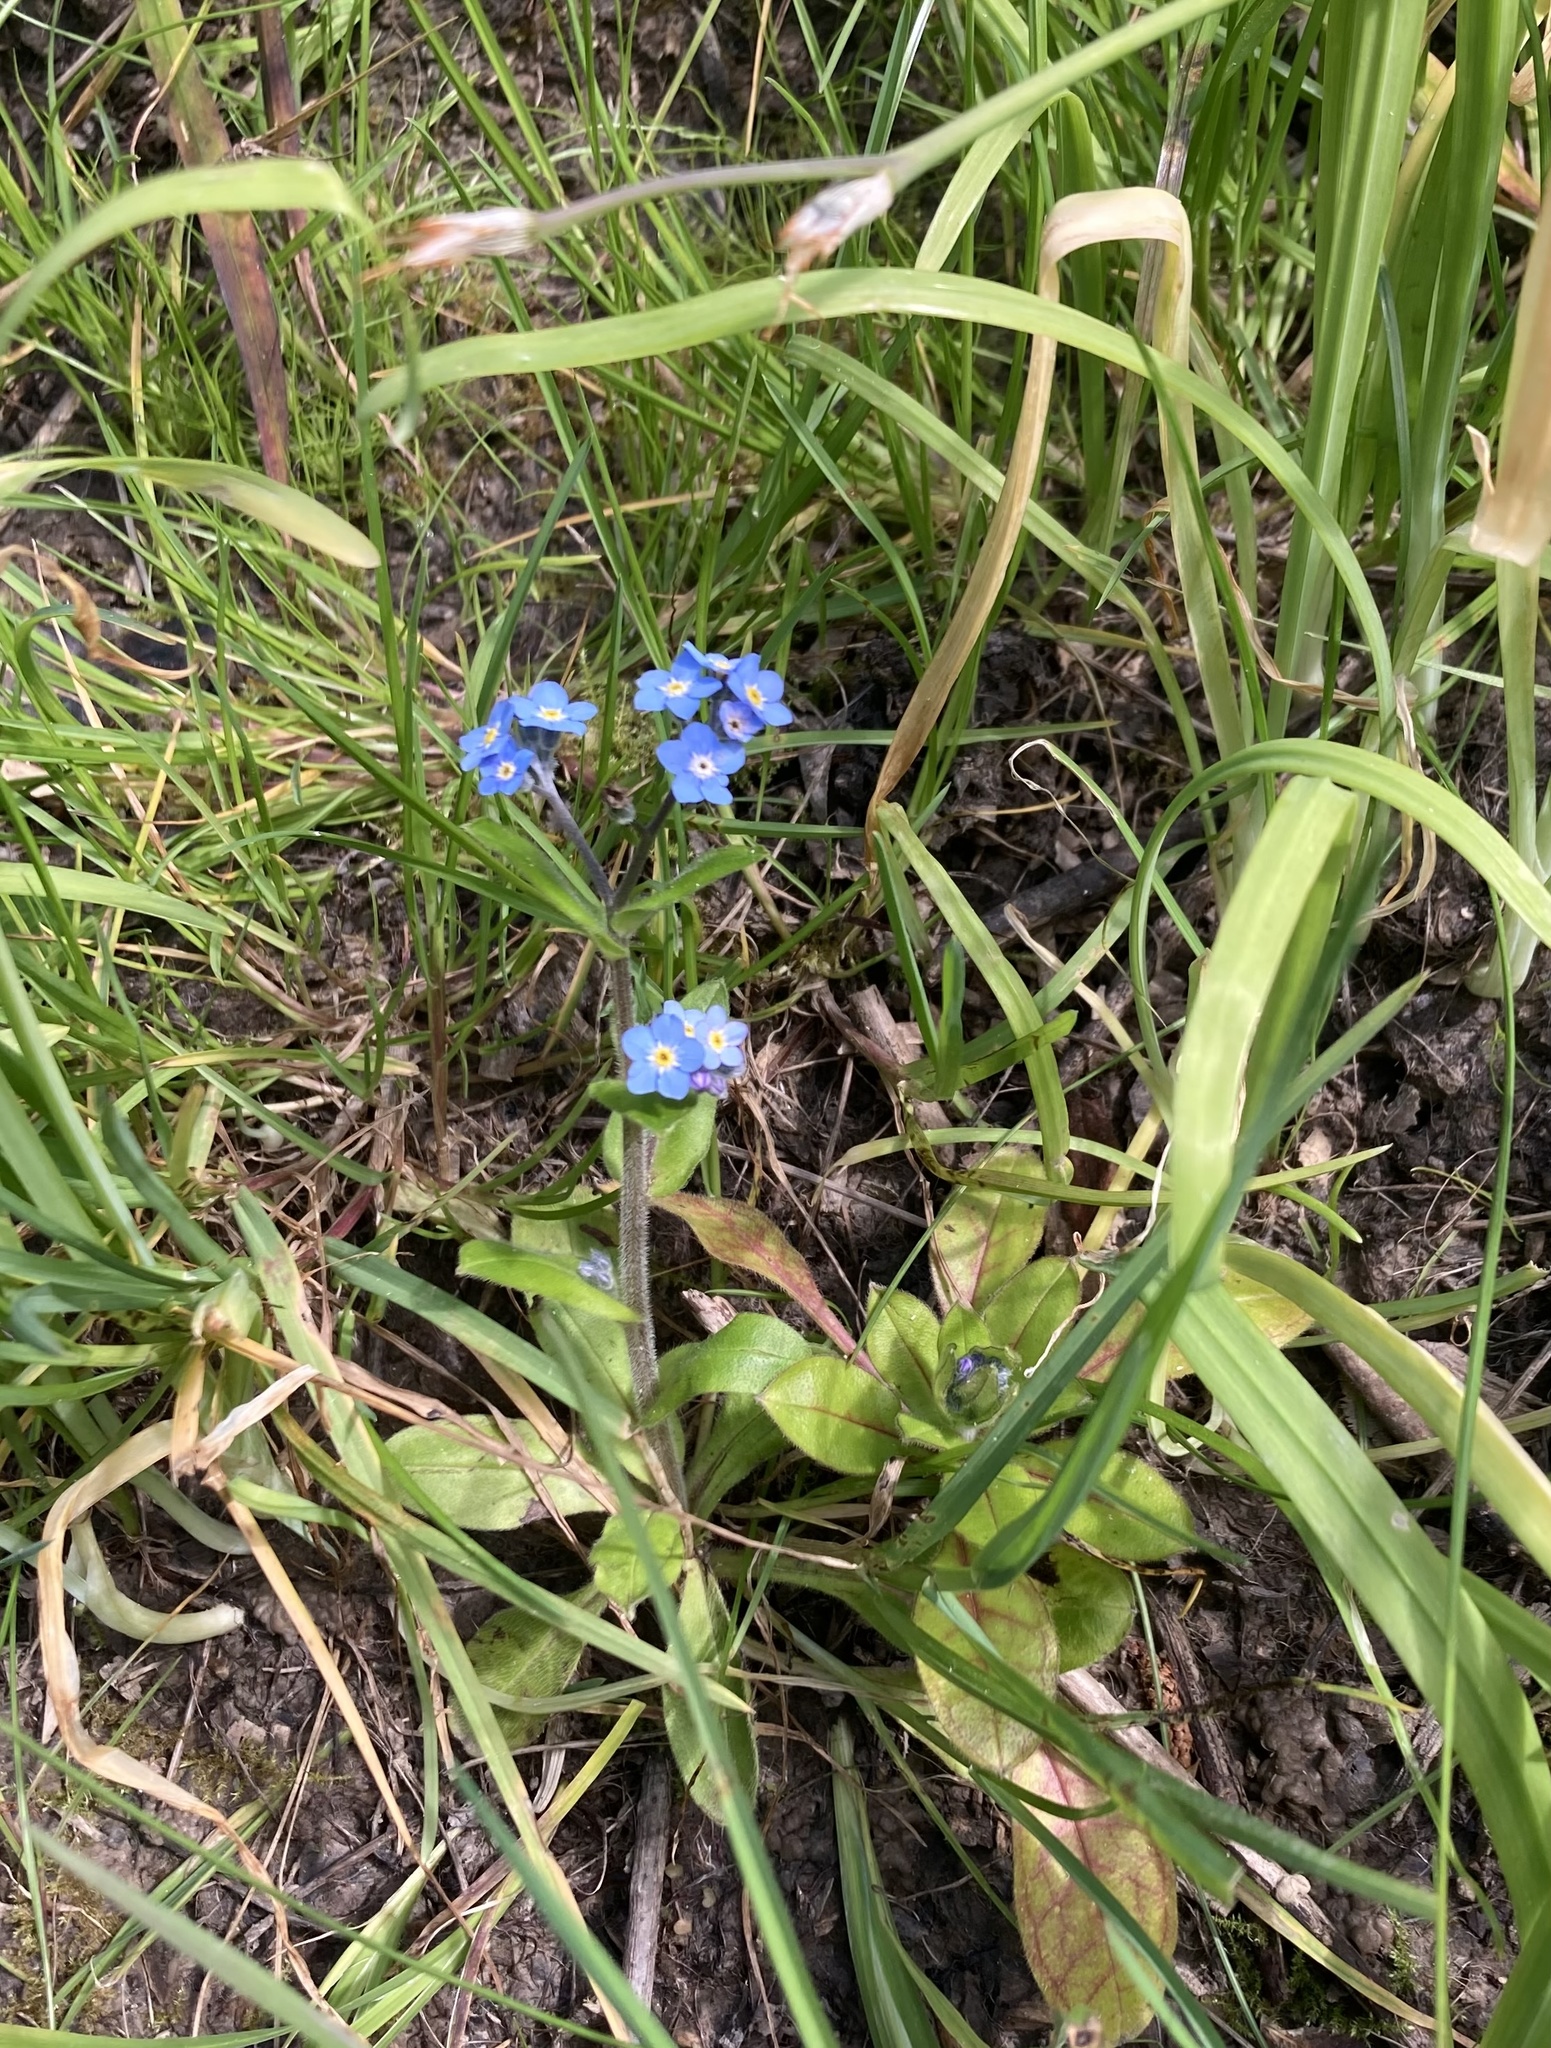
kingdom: Plantae
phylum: Tracheophyta
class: Magnoliopsida
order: Boraginales
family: Boraginaceae
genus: Myosotis
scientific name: Myosotis sylvatica
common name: Wood forget-me-not
